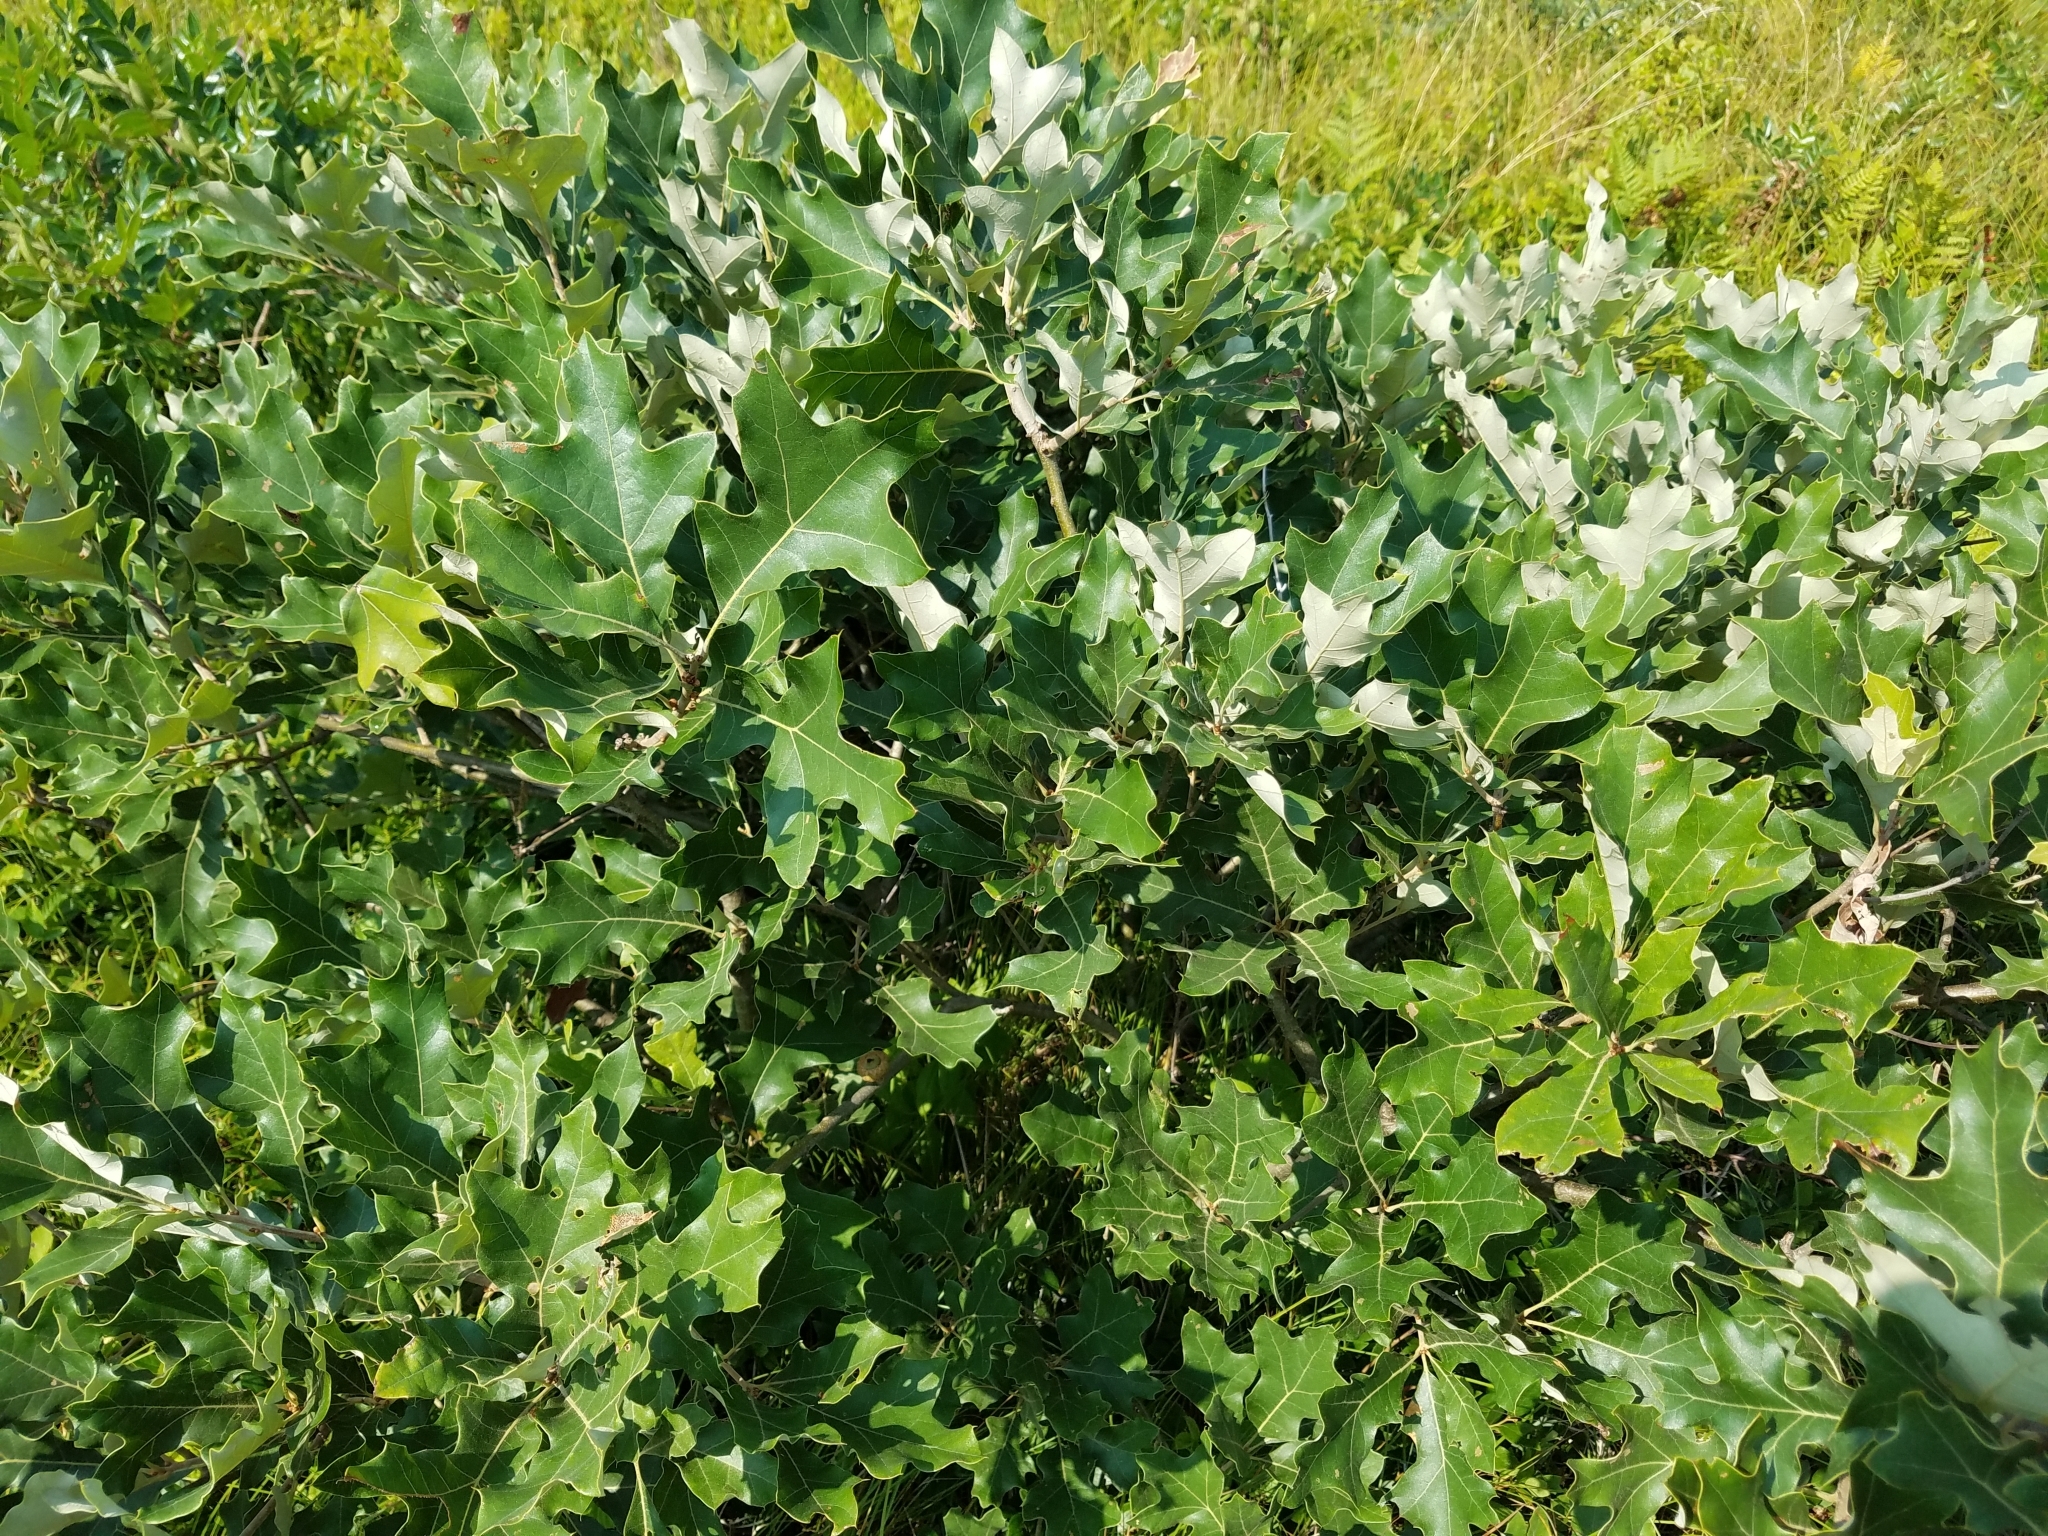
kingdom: Plantae
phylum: Tracheophyta
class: Magnoliopsida
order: Fagales
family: Fagaceae
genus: Quercus
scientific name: Quercus ilicifolia
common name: Bear oak
